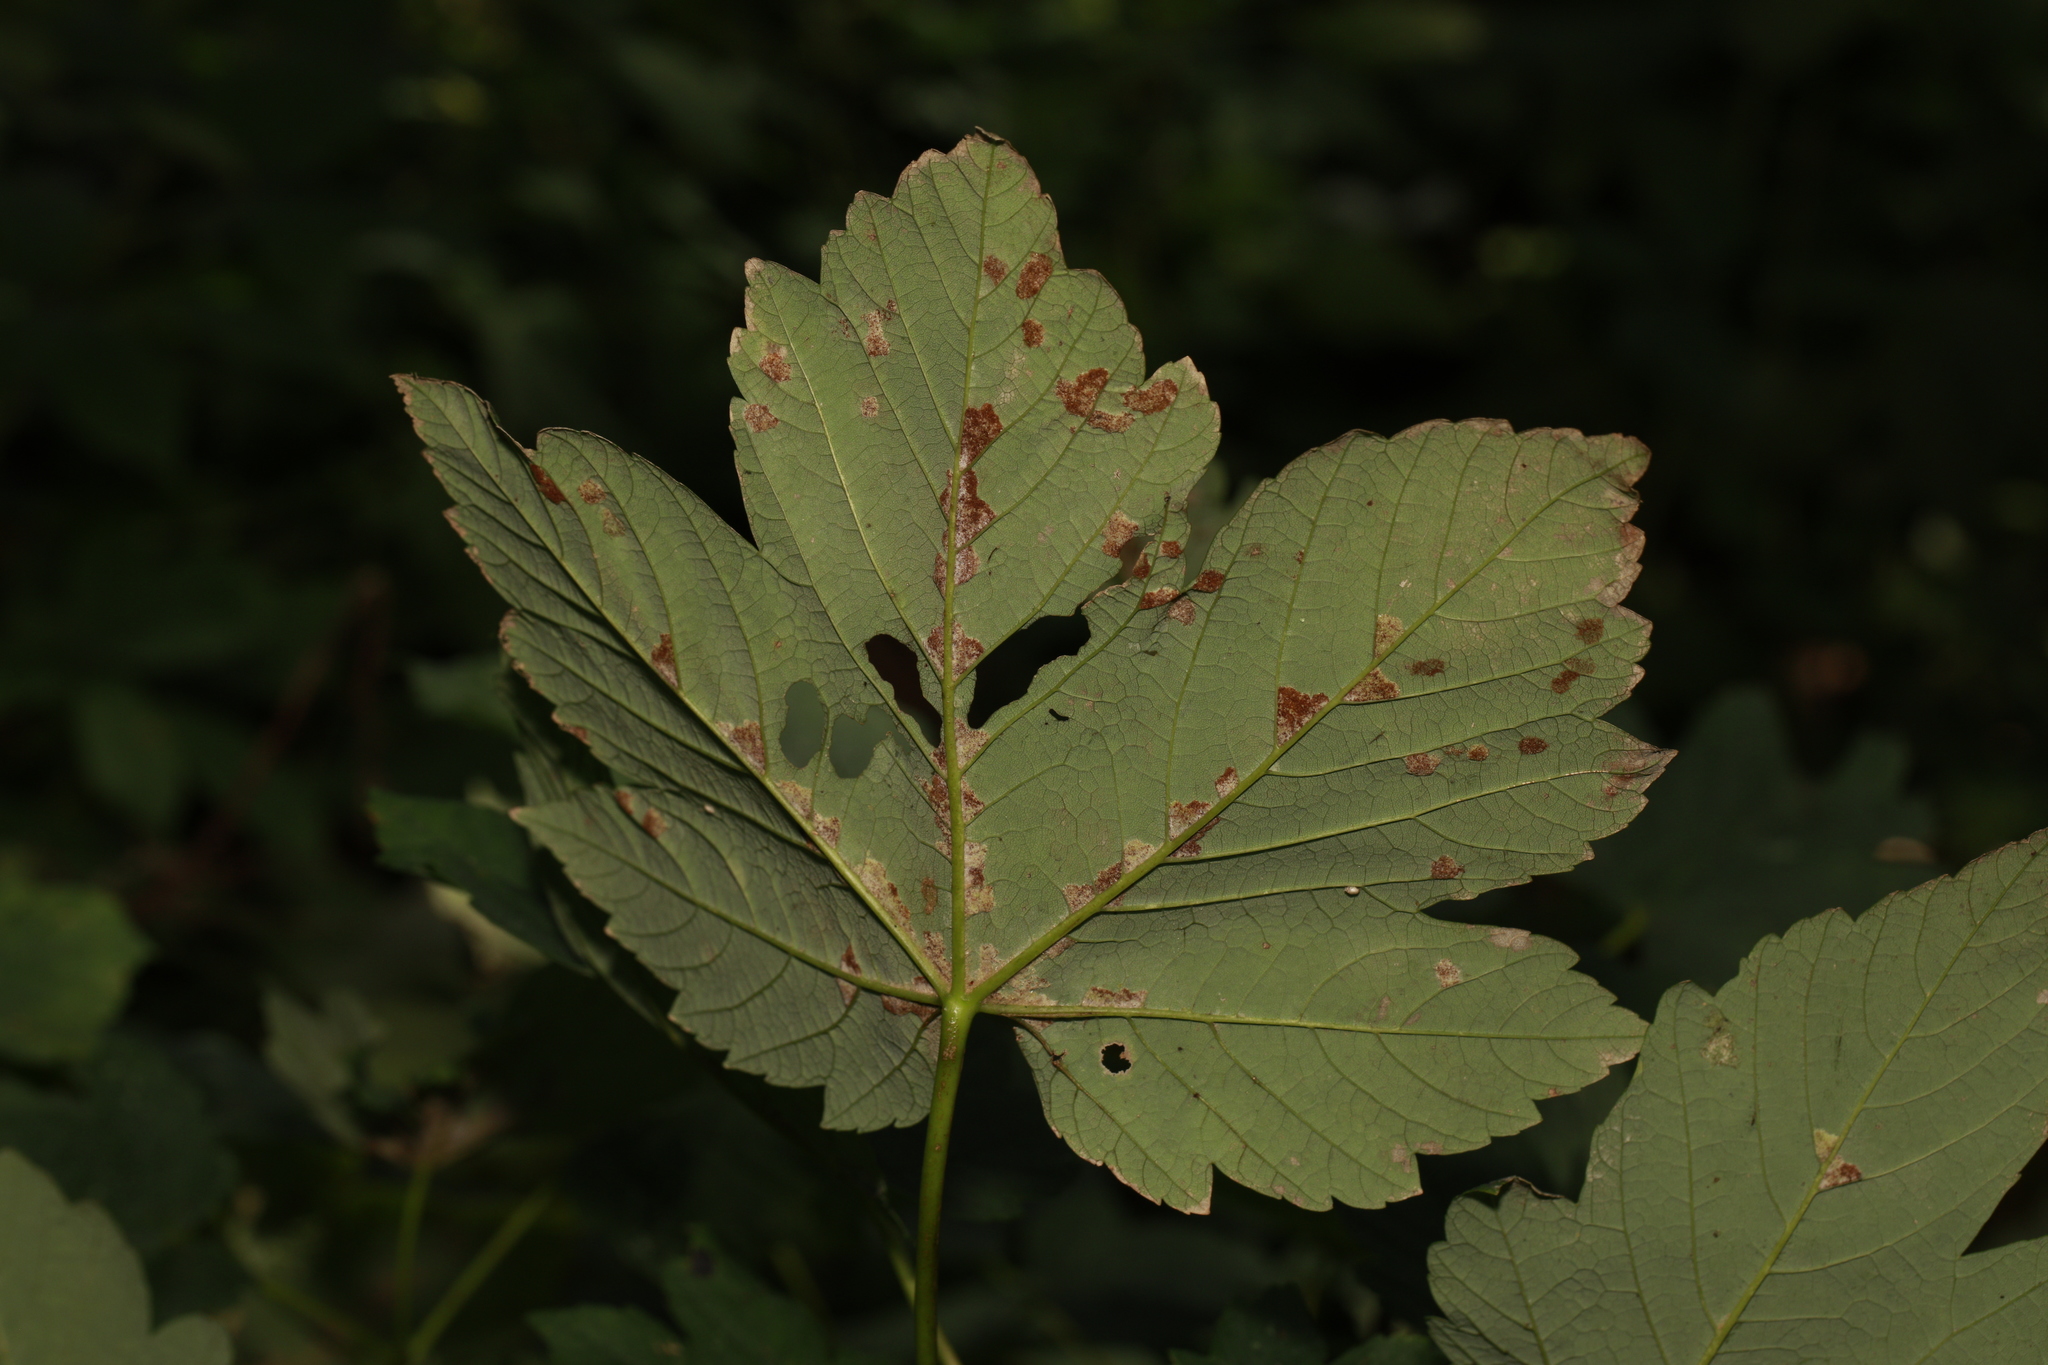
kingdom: Animalia
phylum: Arthropoda
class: Arachnida
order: Trombidiformes
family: Eriophyidae
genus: Aceria
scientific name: Aceria pseudoplatani
